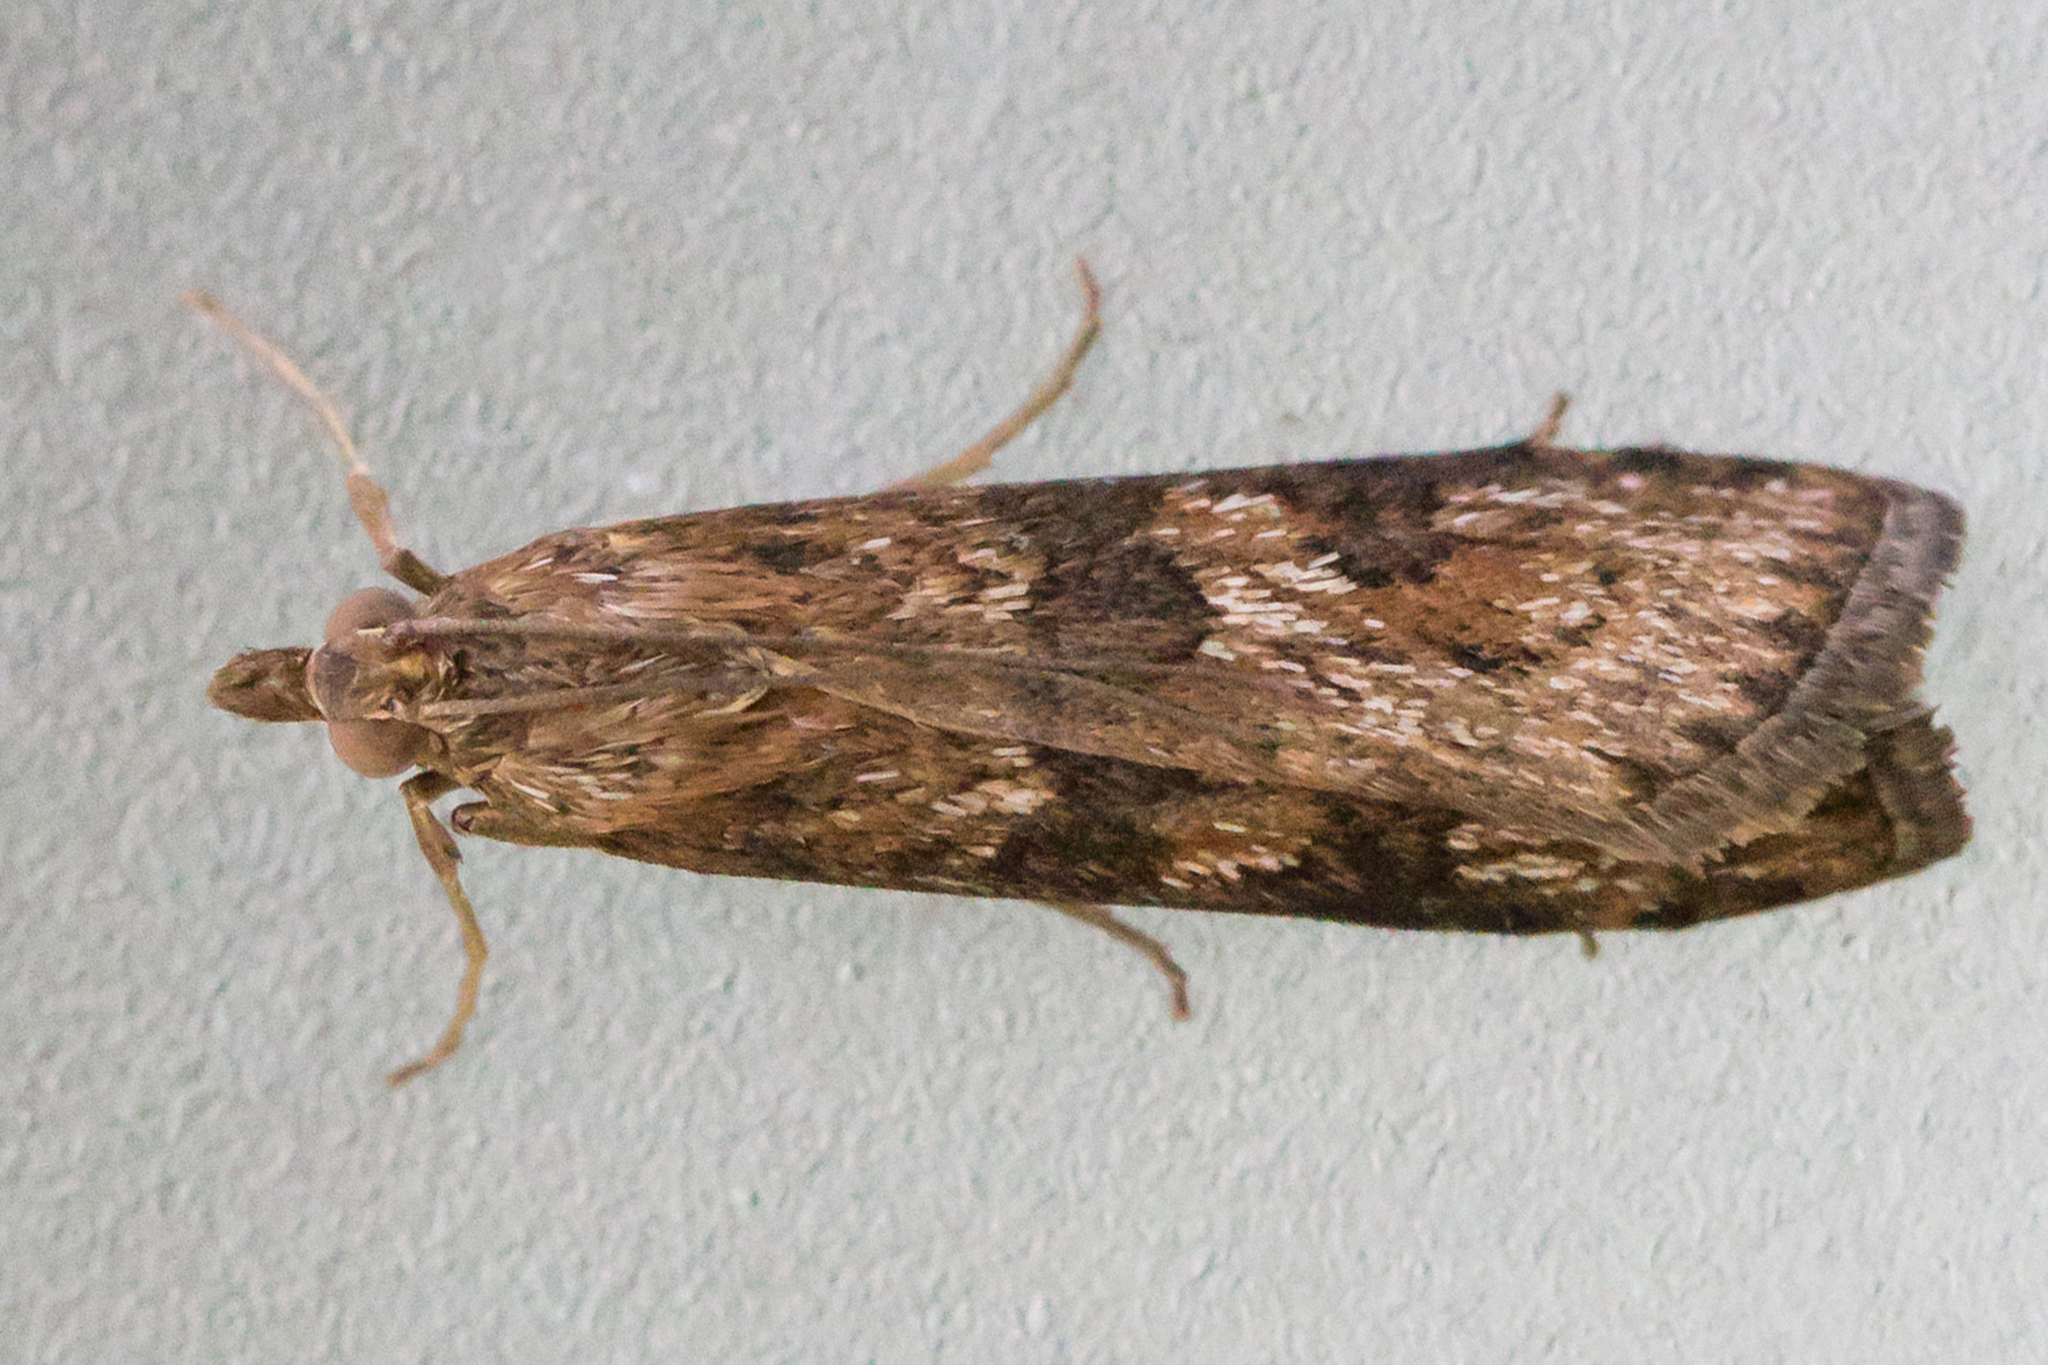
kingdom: Animalia
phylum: Arthropoda
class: Insecta
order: Lepidoptera
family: Crambidae
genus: Nomophila
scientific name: Nomophila nearctica
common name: American rush veneer
